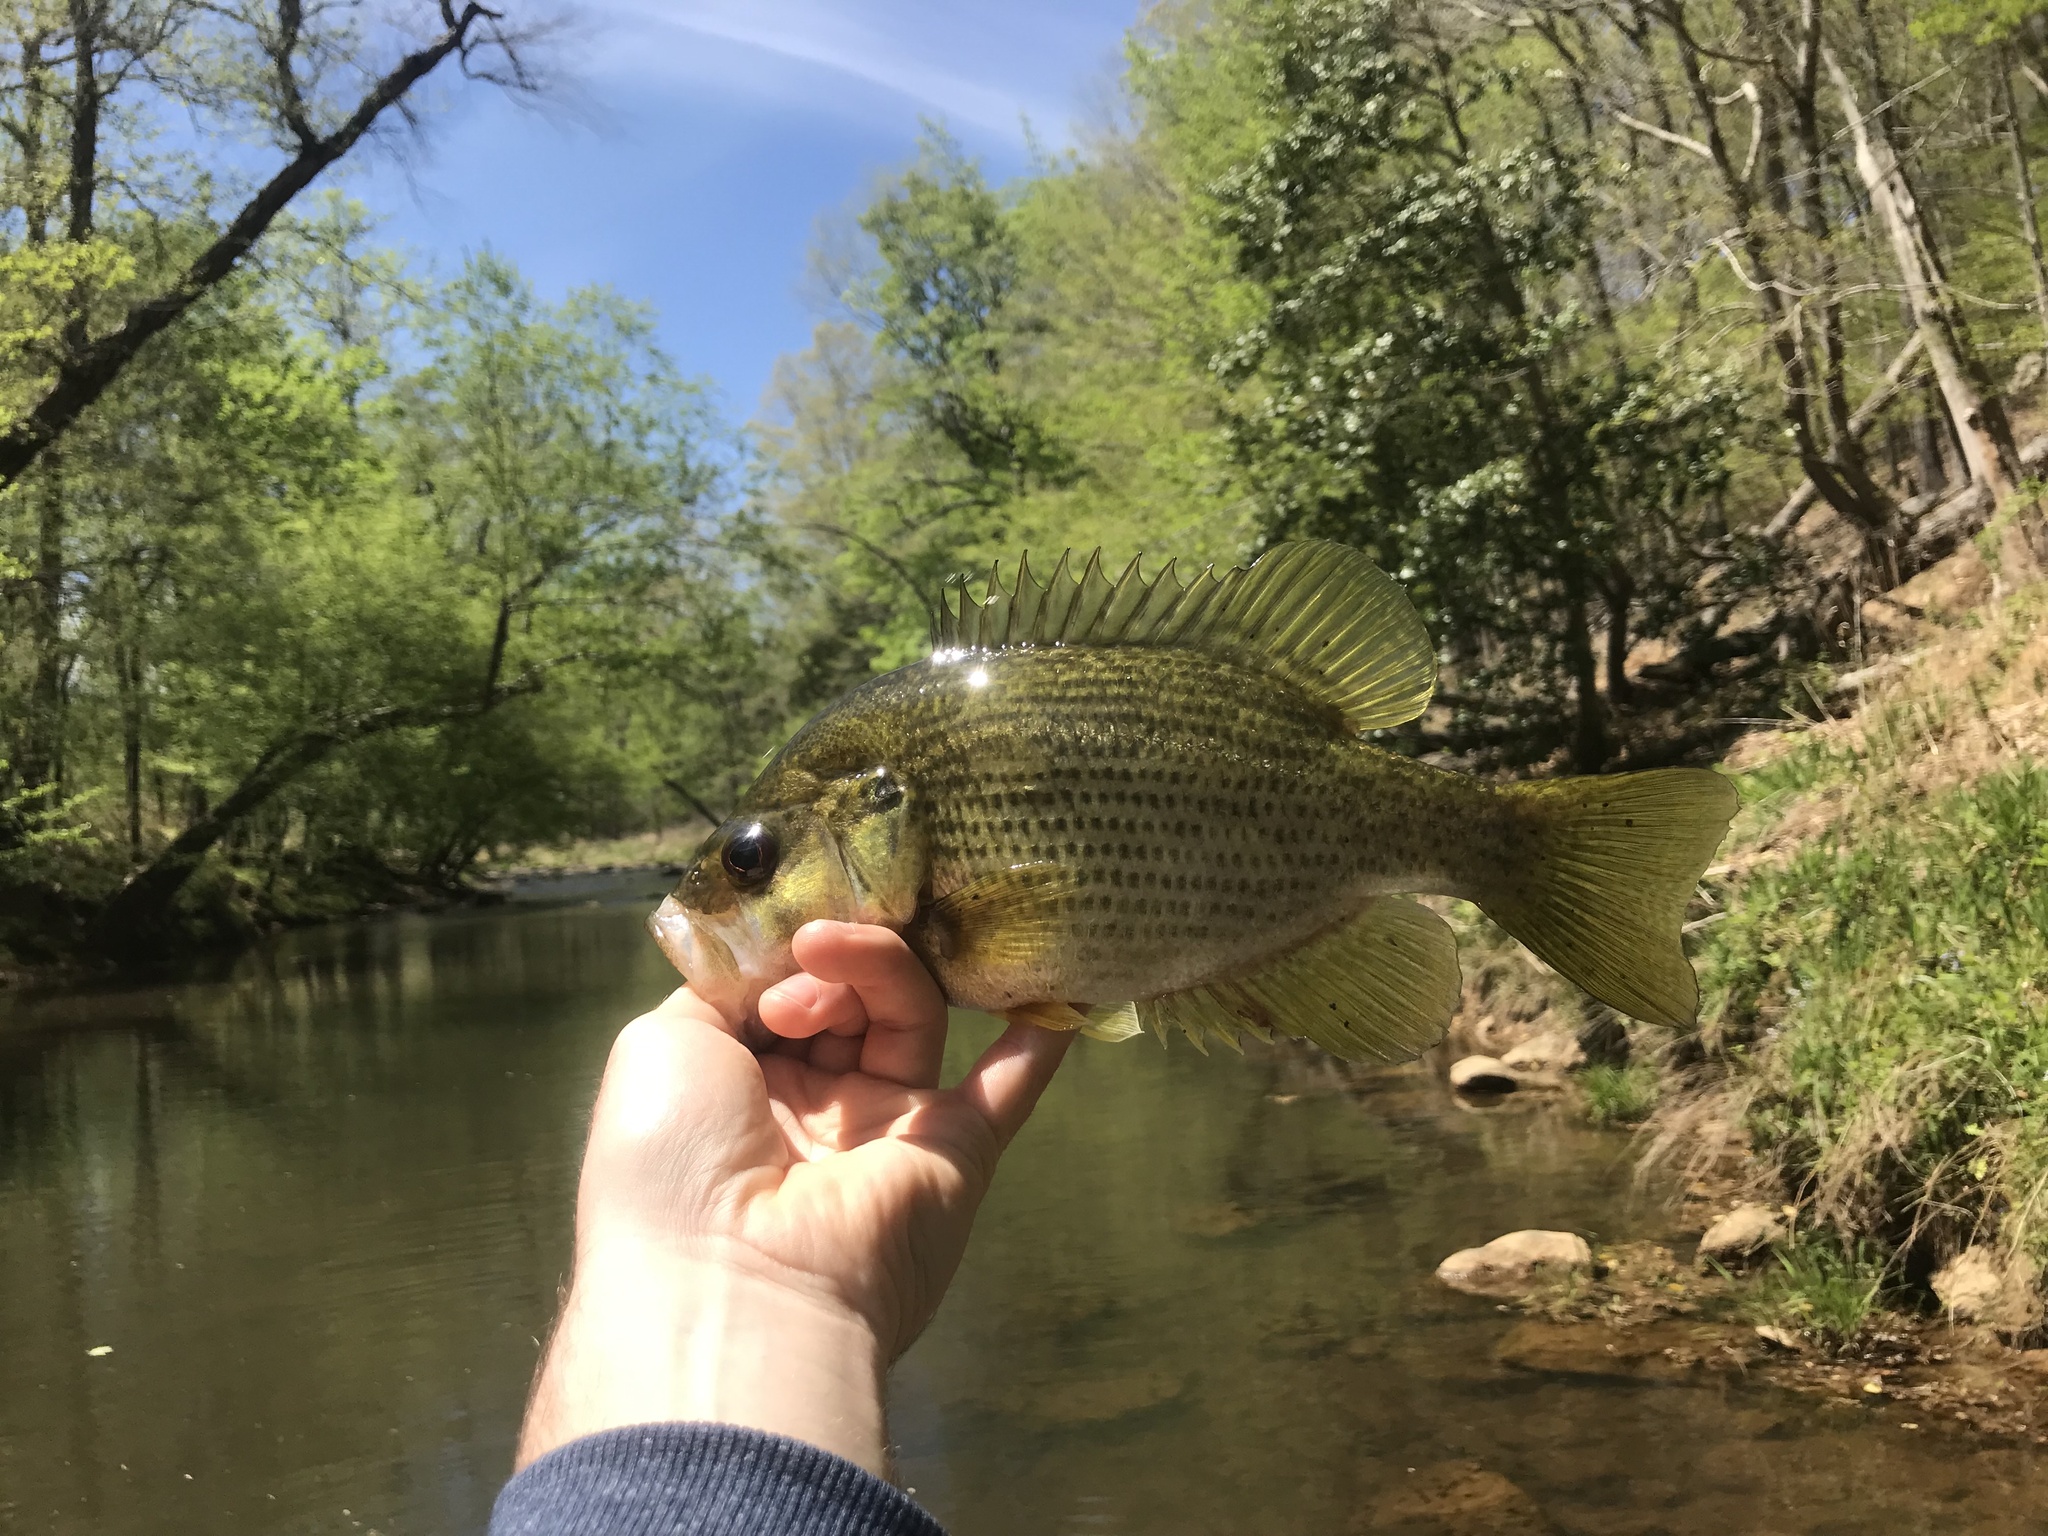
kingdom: Animalia
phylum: Chordata
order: Perciformes
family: Centrarchidae
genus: Ambloplites
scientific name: Ambloplites cavifrons
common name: Roanoke bass
